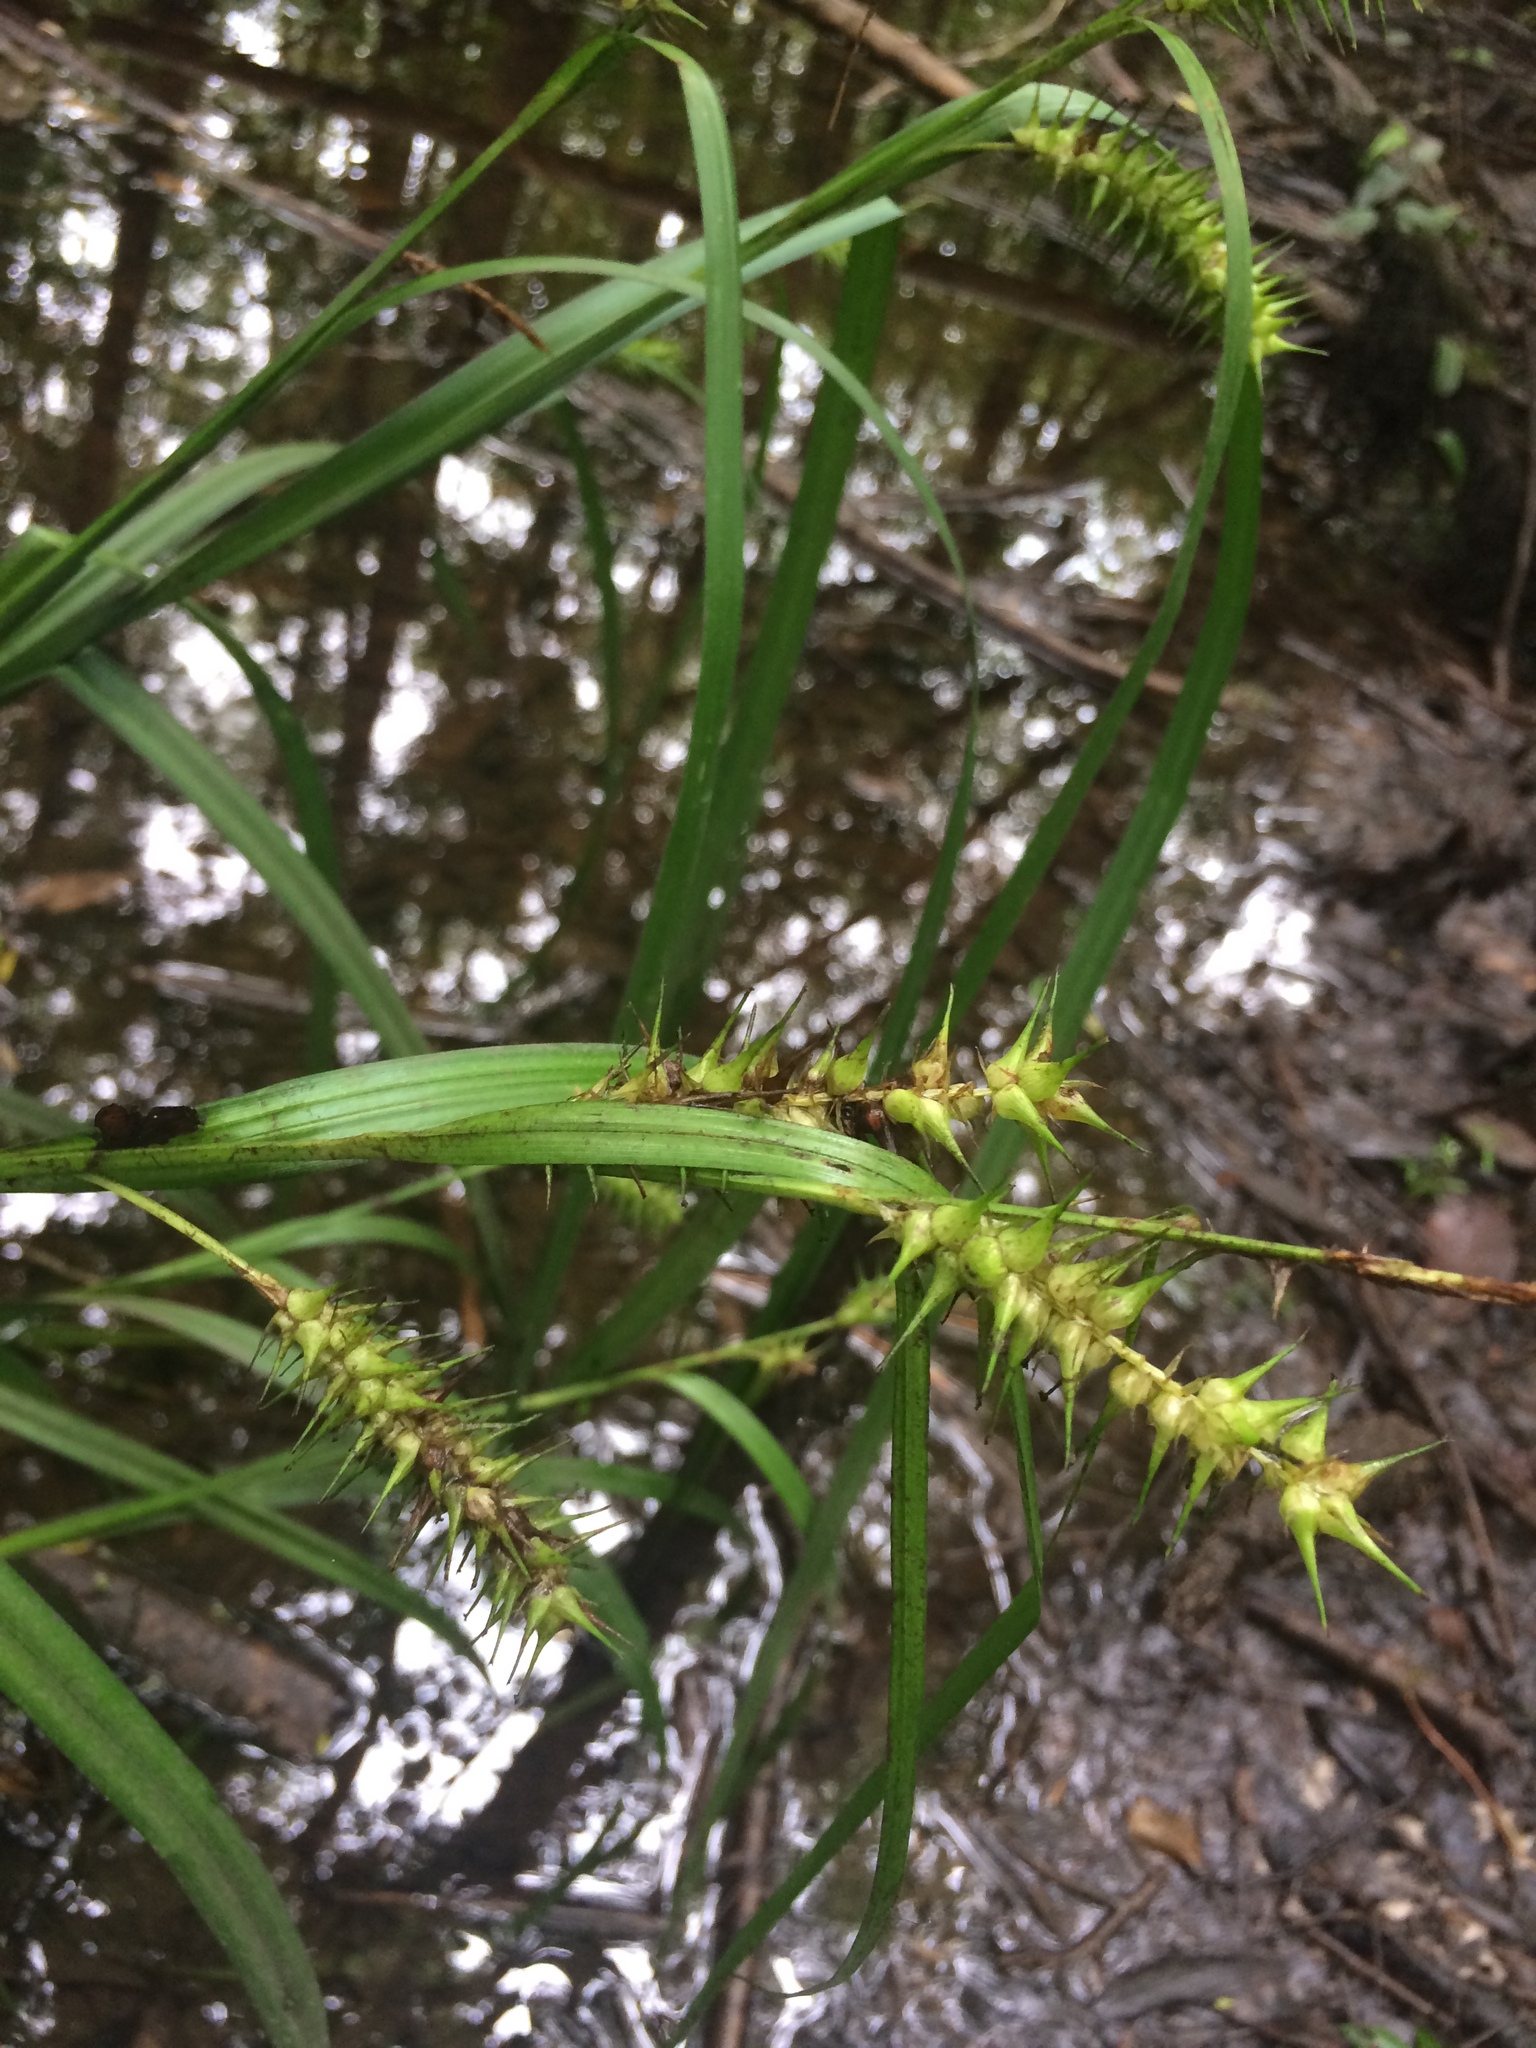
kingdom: Plantae
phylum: Tracheophyta
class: Liliopsida
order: Poales
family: Cyperaceae
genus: Carex
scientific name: Carex gigantea
